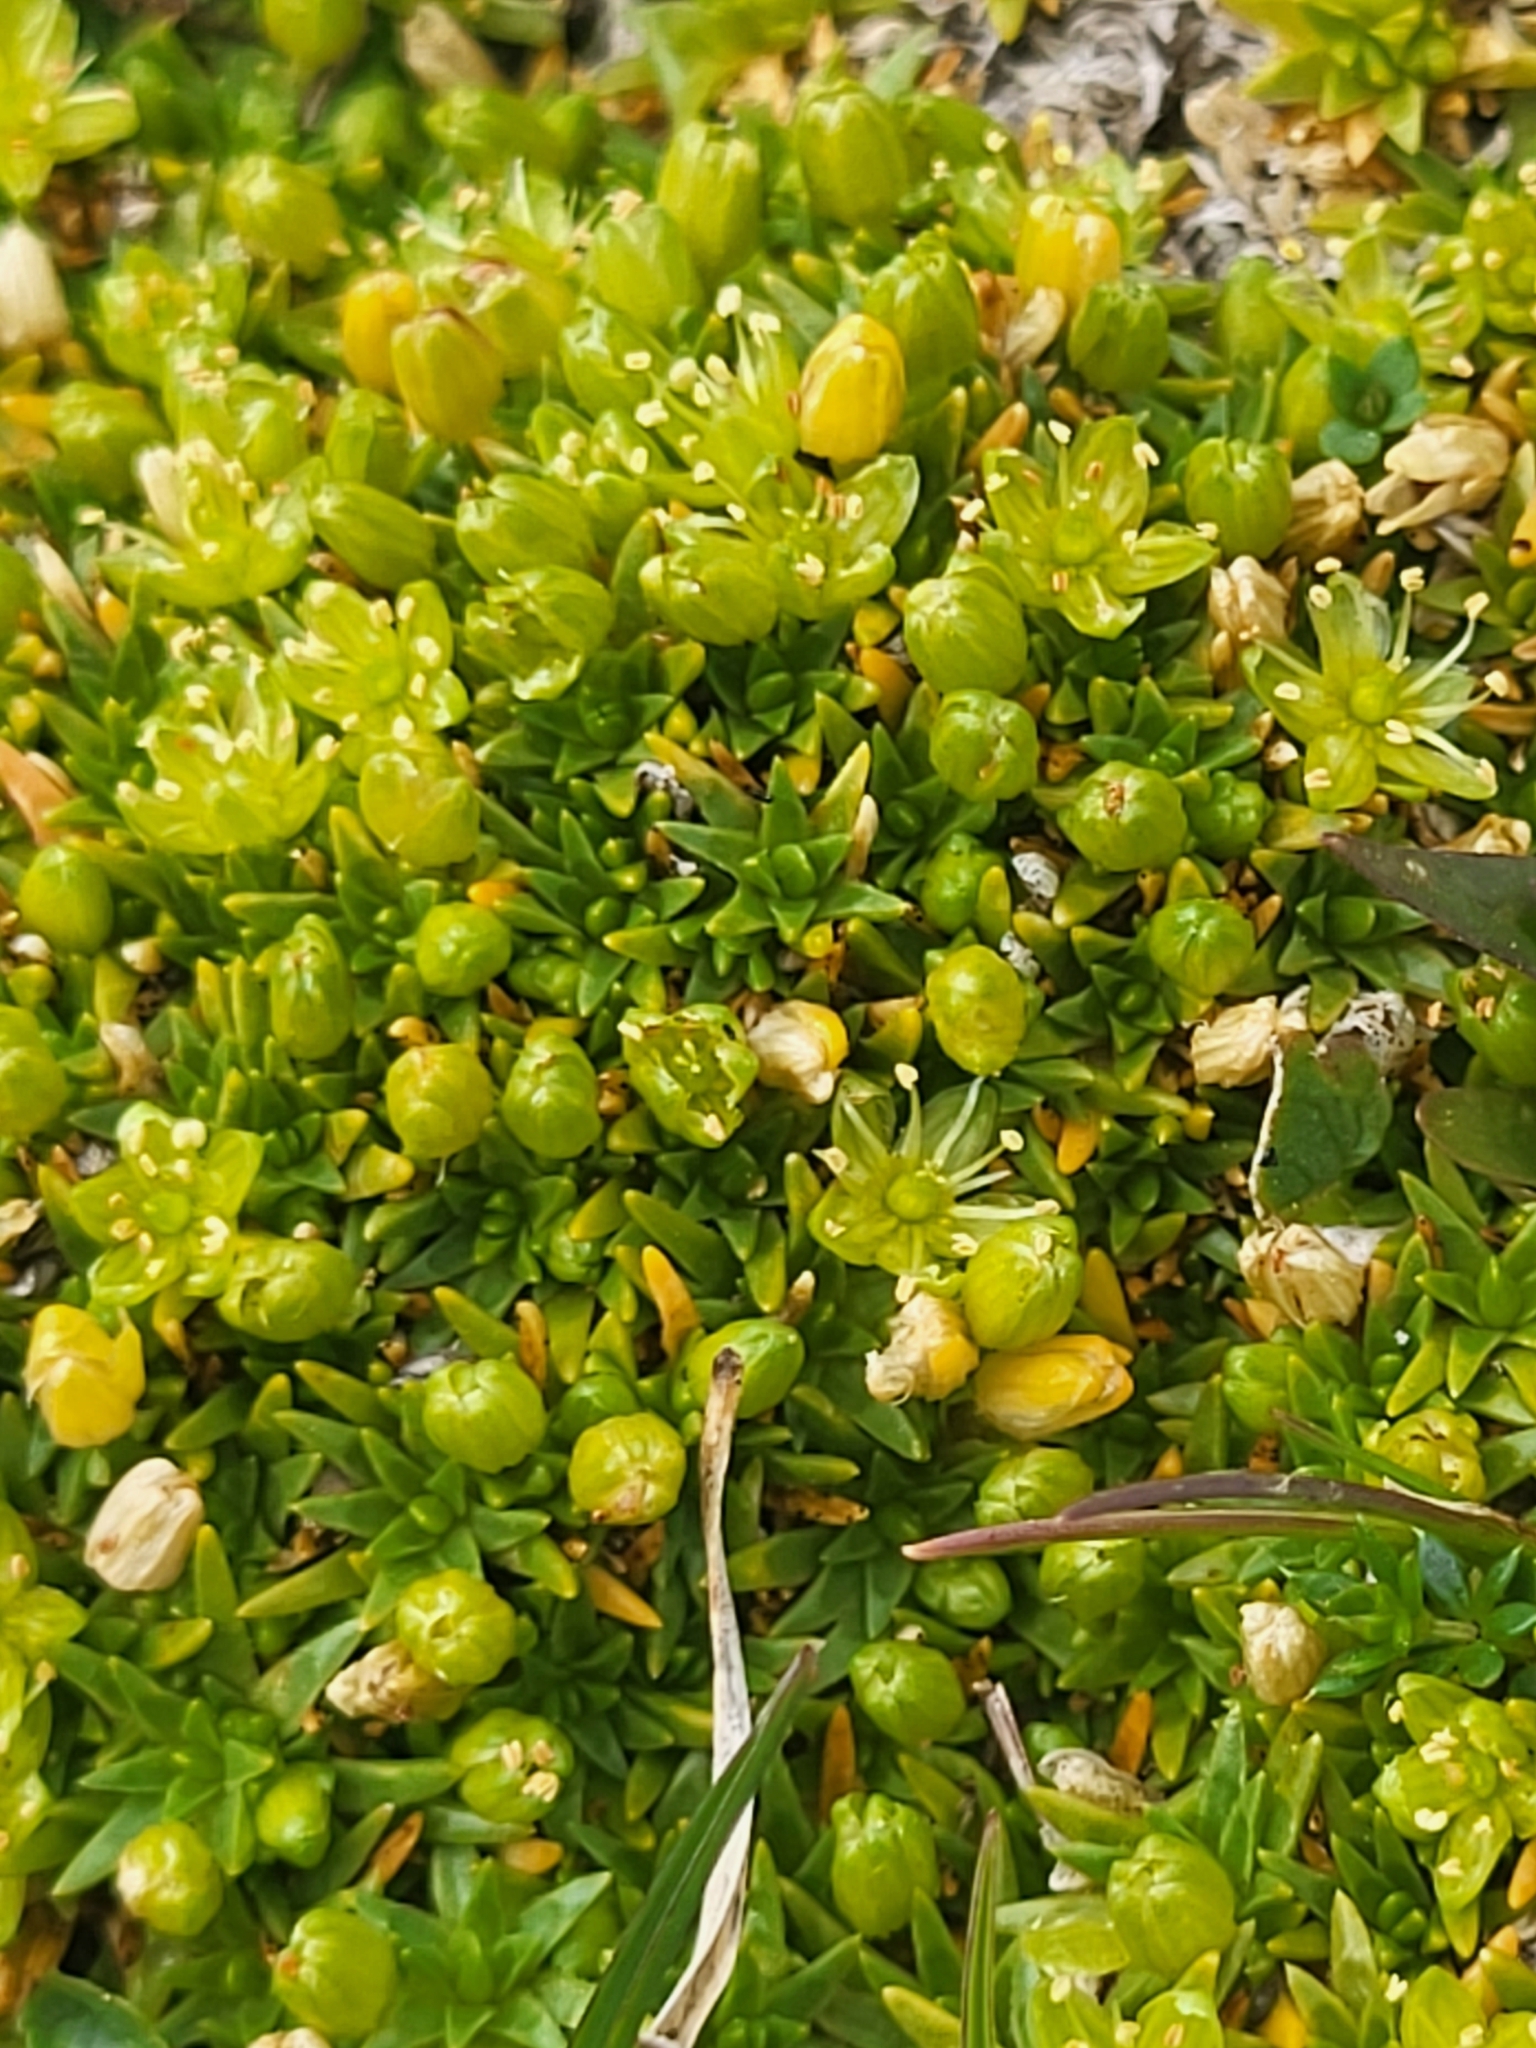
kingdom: Plantae
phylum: Tracheophyta
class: Magnoliopsida
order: Caryophyllales
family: Caryophyllaceae
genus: Cherleria
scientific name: Cherleria sedoides
